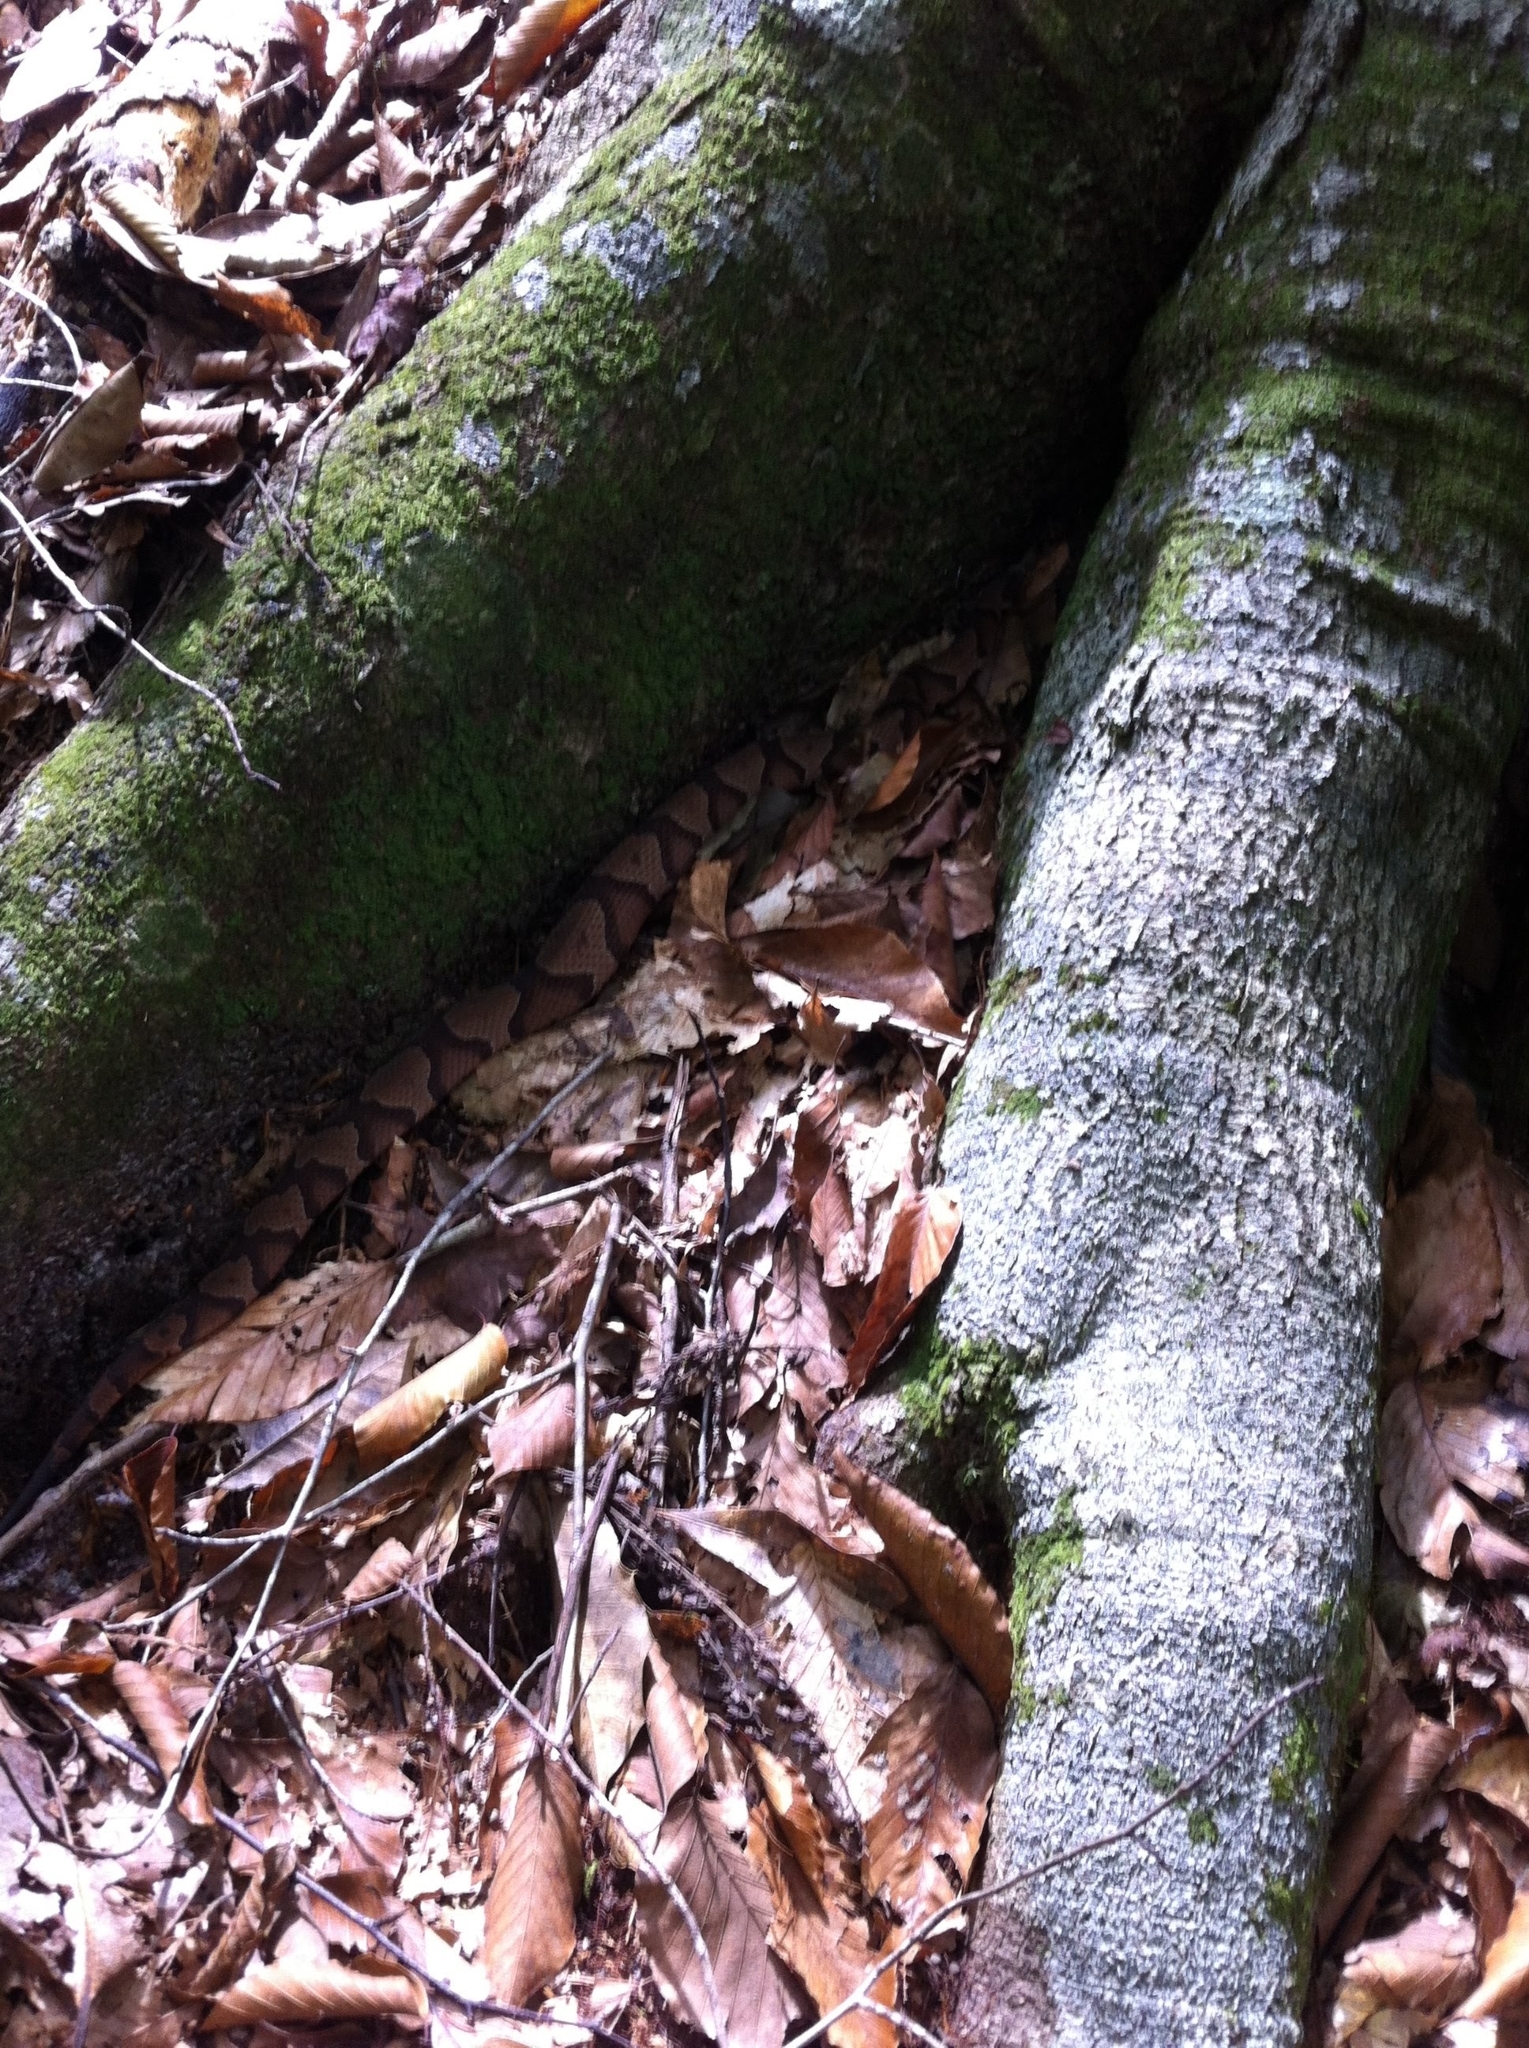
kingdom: Animalia
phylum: Chordata
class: Squamata
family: Viperidae
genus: Agkistrodon
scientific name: Agkistrodon contortrix
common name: Northern copperhead
